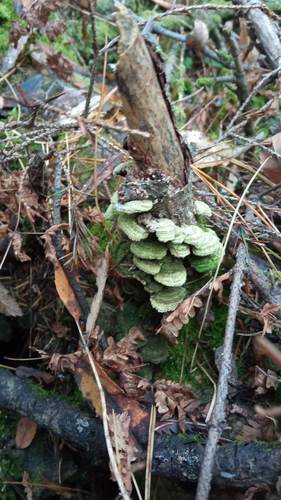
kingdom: Fungi
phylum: Basidiomycota
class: Agaricomycetes
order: Hymenochaetales
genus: Trichaptum
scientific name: Trichaptum
